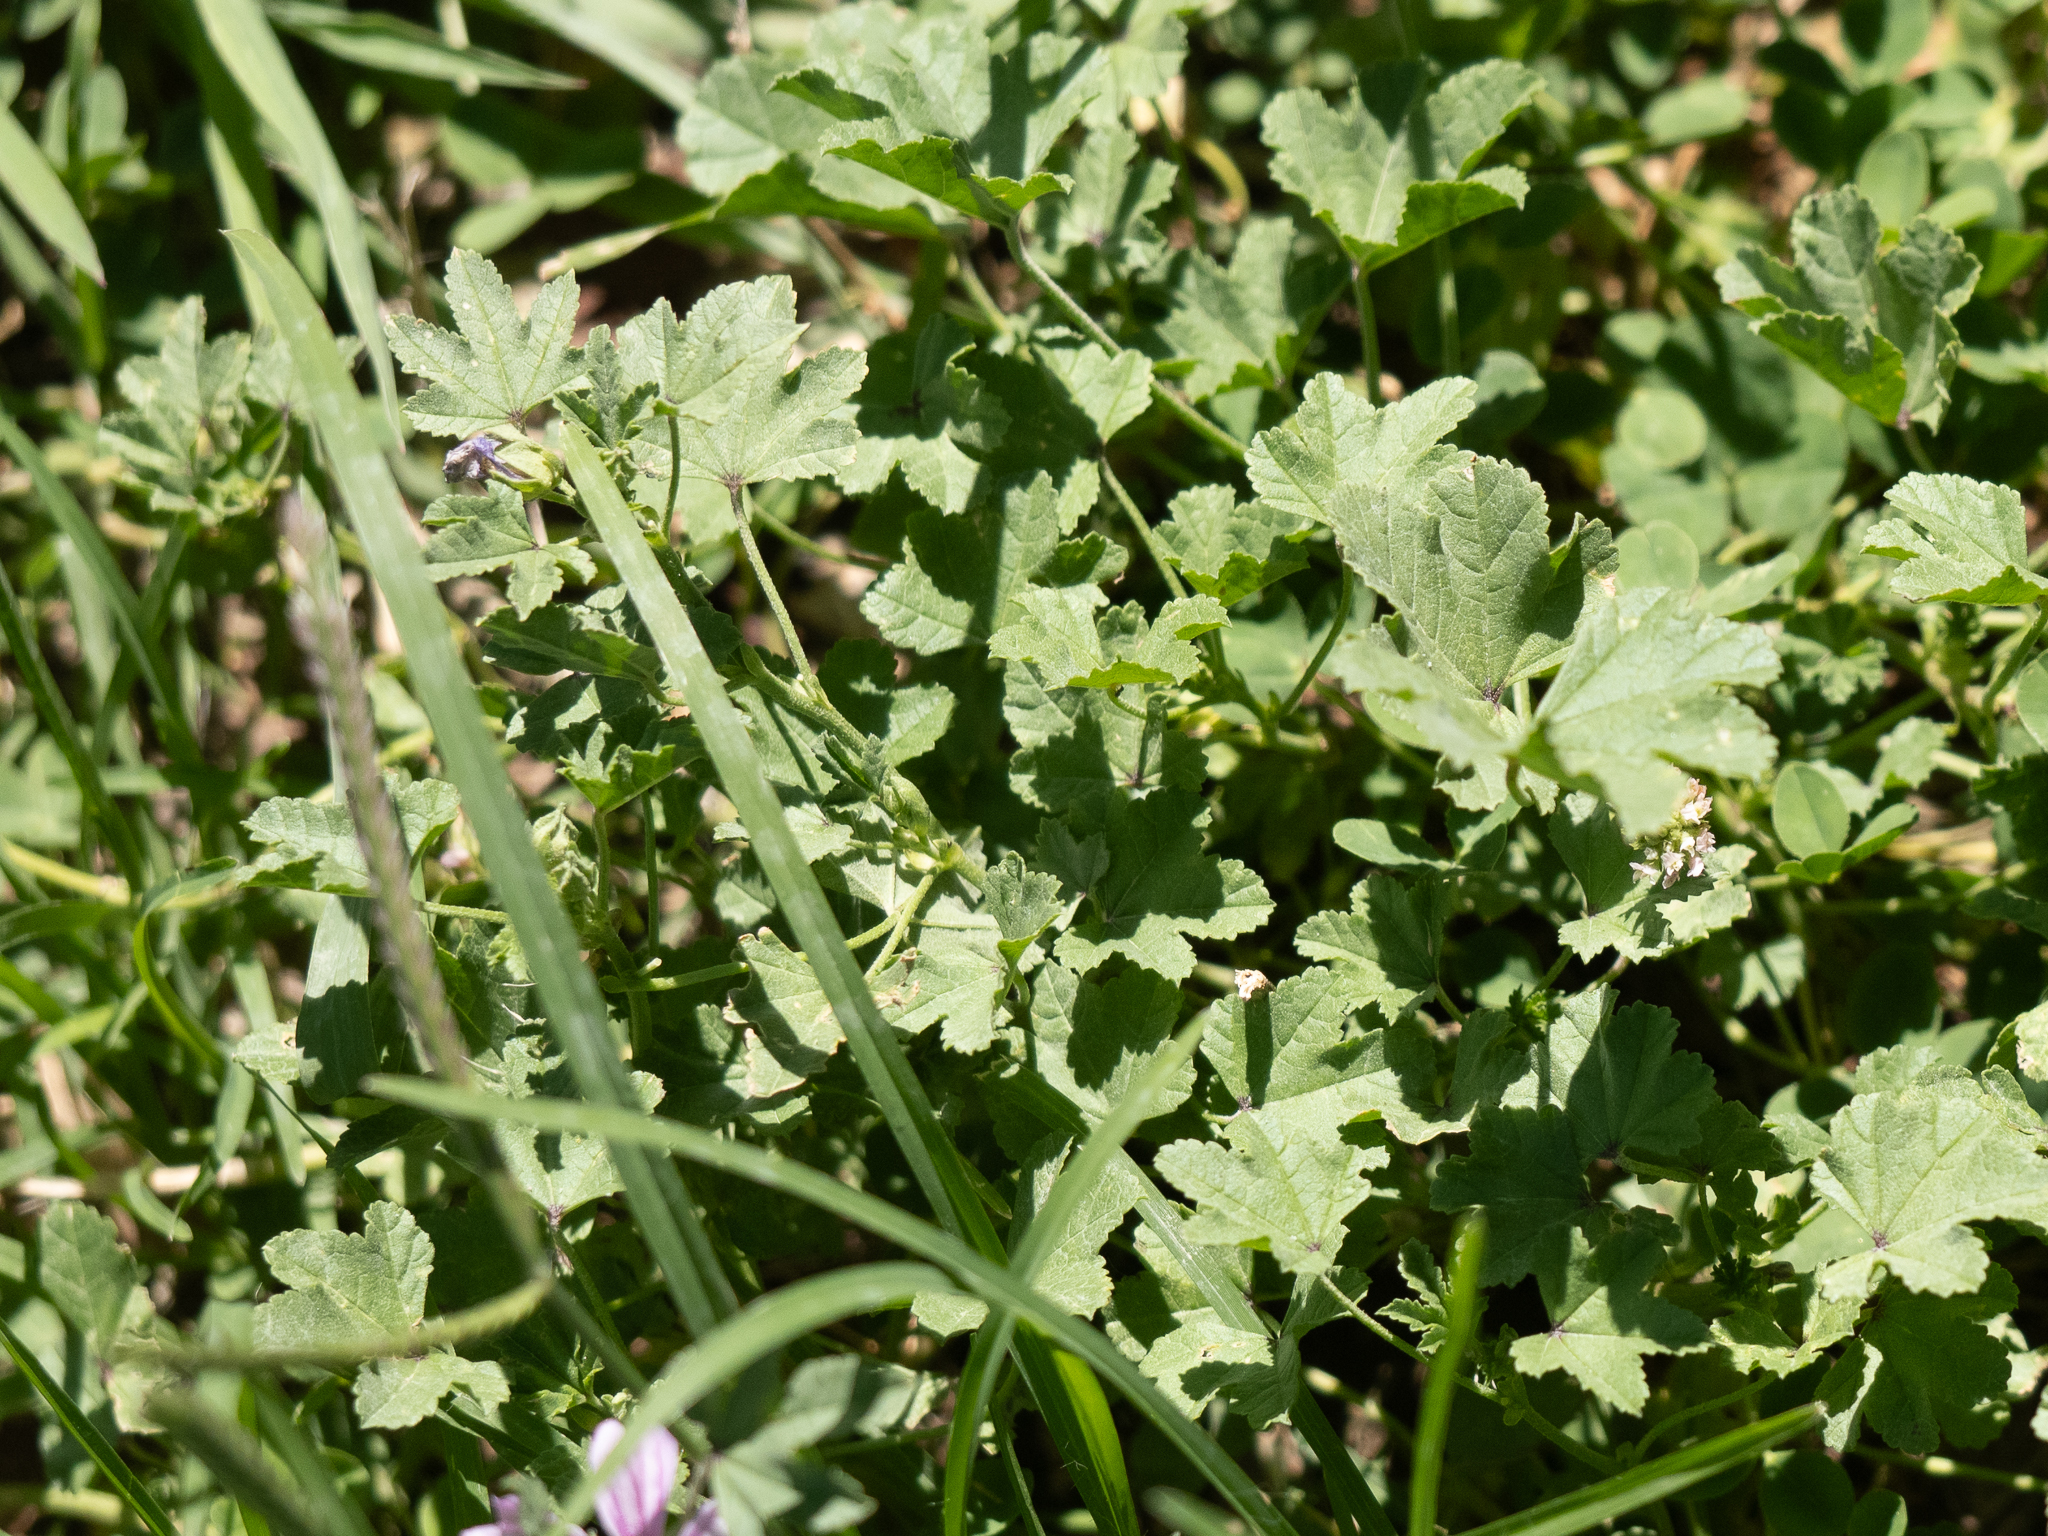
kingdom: Plantae
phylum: Tracheophyta
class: Magnoliopsida
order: Malvales
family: Malvaceae
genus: Malva
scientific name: Malva sylvestris
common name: Common mallow
